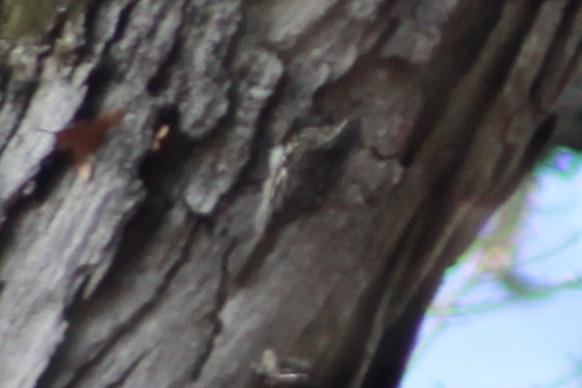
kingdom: Animalia
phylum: Chordata
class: Aves
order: Passeriformes
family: Certhiidae
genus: Certhia
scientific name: Certhia americana
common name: Brown creeper
